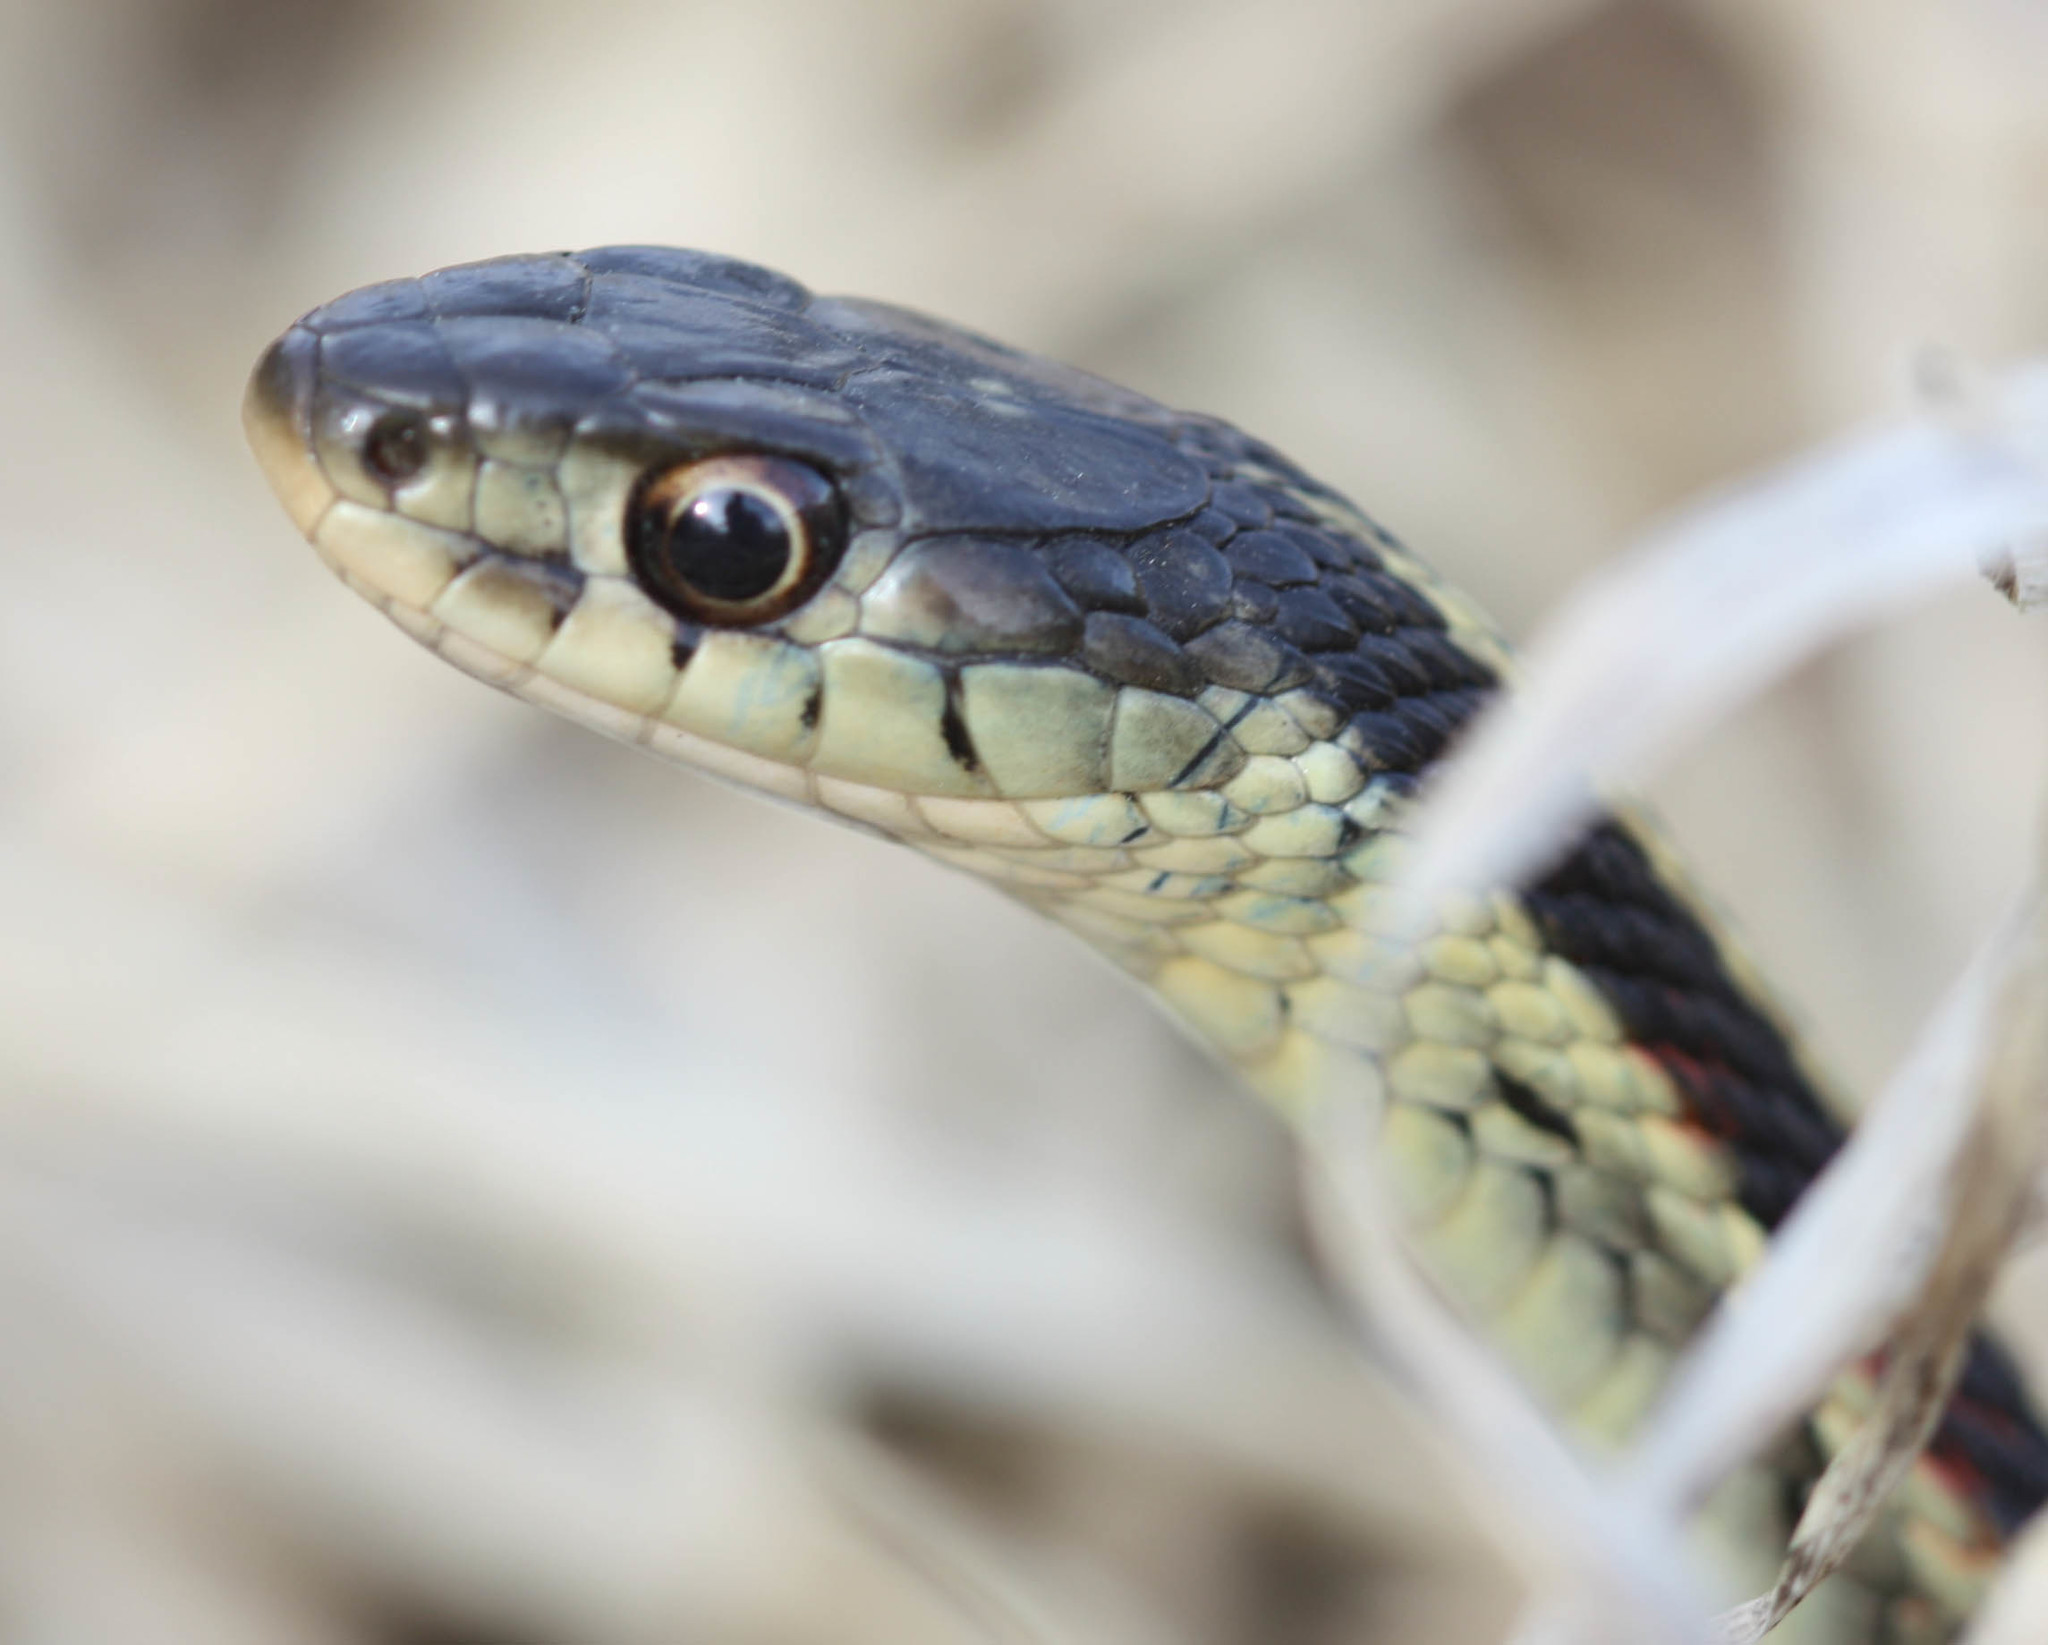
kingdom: Animalia
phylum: Chordata
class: Squamata
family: Colubridae
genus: Thamnophis
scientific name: Thamnophis sirtalis
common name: Common garter snake
